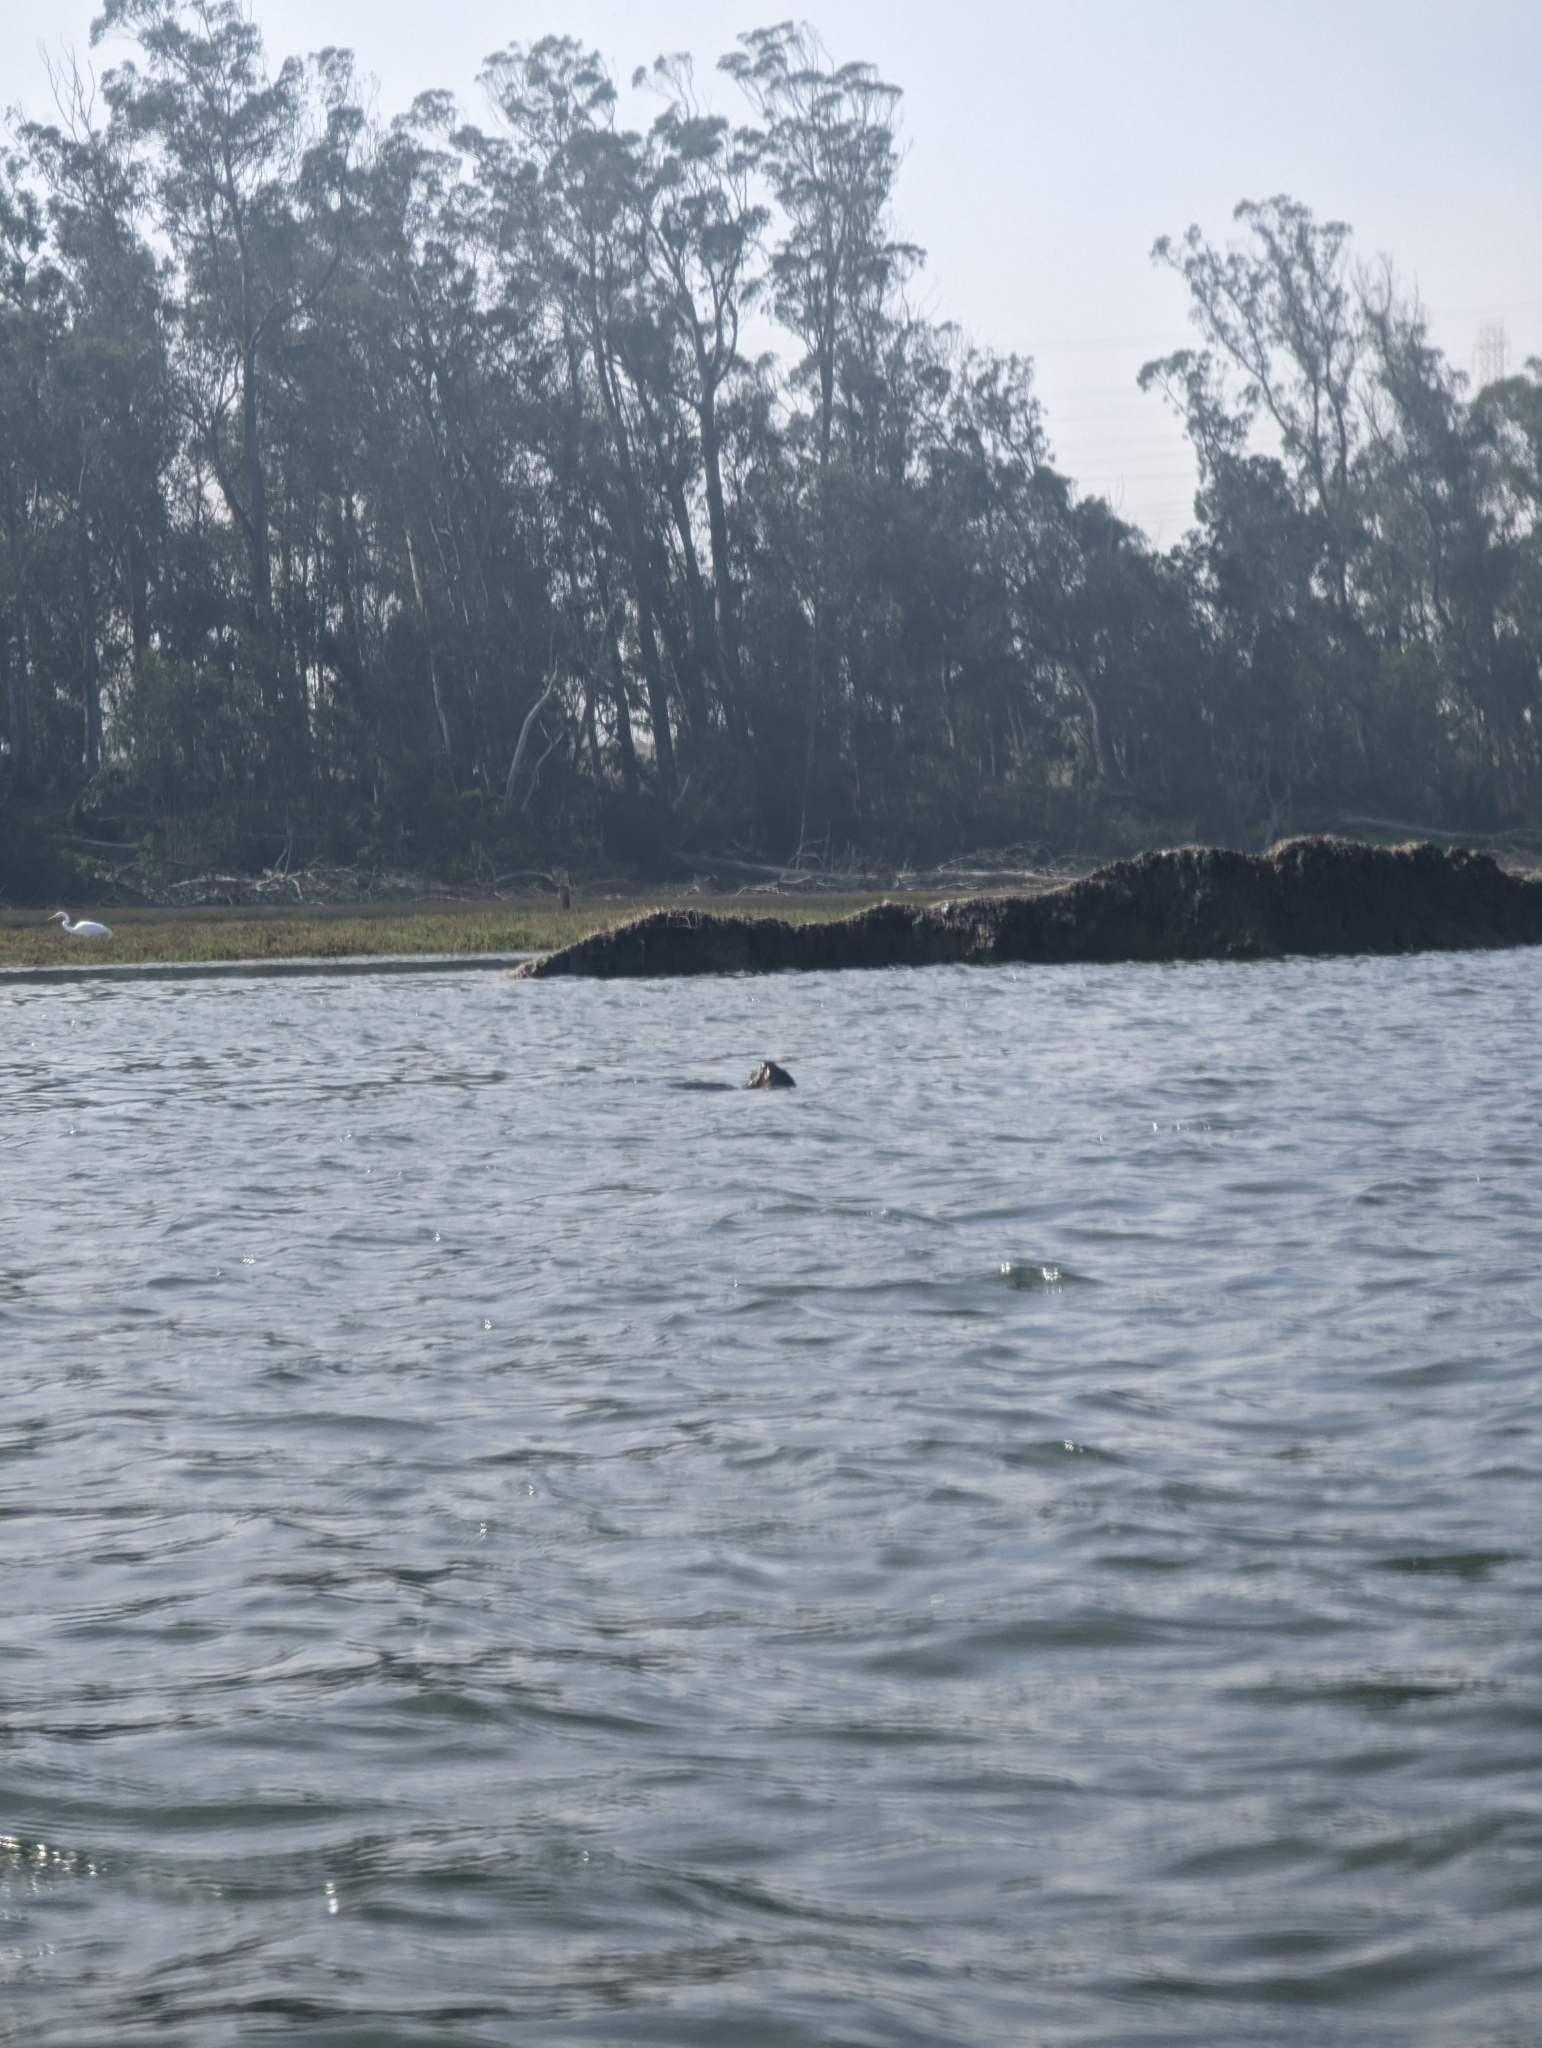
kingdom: Animalia
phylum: Chordata
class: Mammalia
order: Carnivora
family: Mustelidae
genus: Enhydra
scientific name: Enhydra lutris
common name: Sea otter
